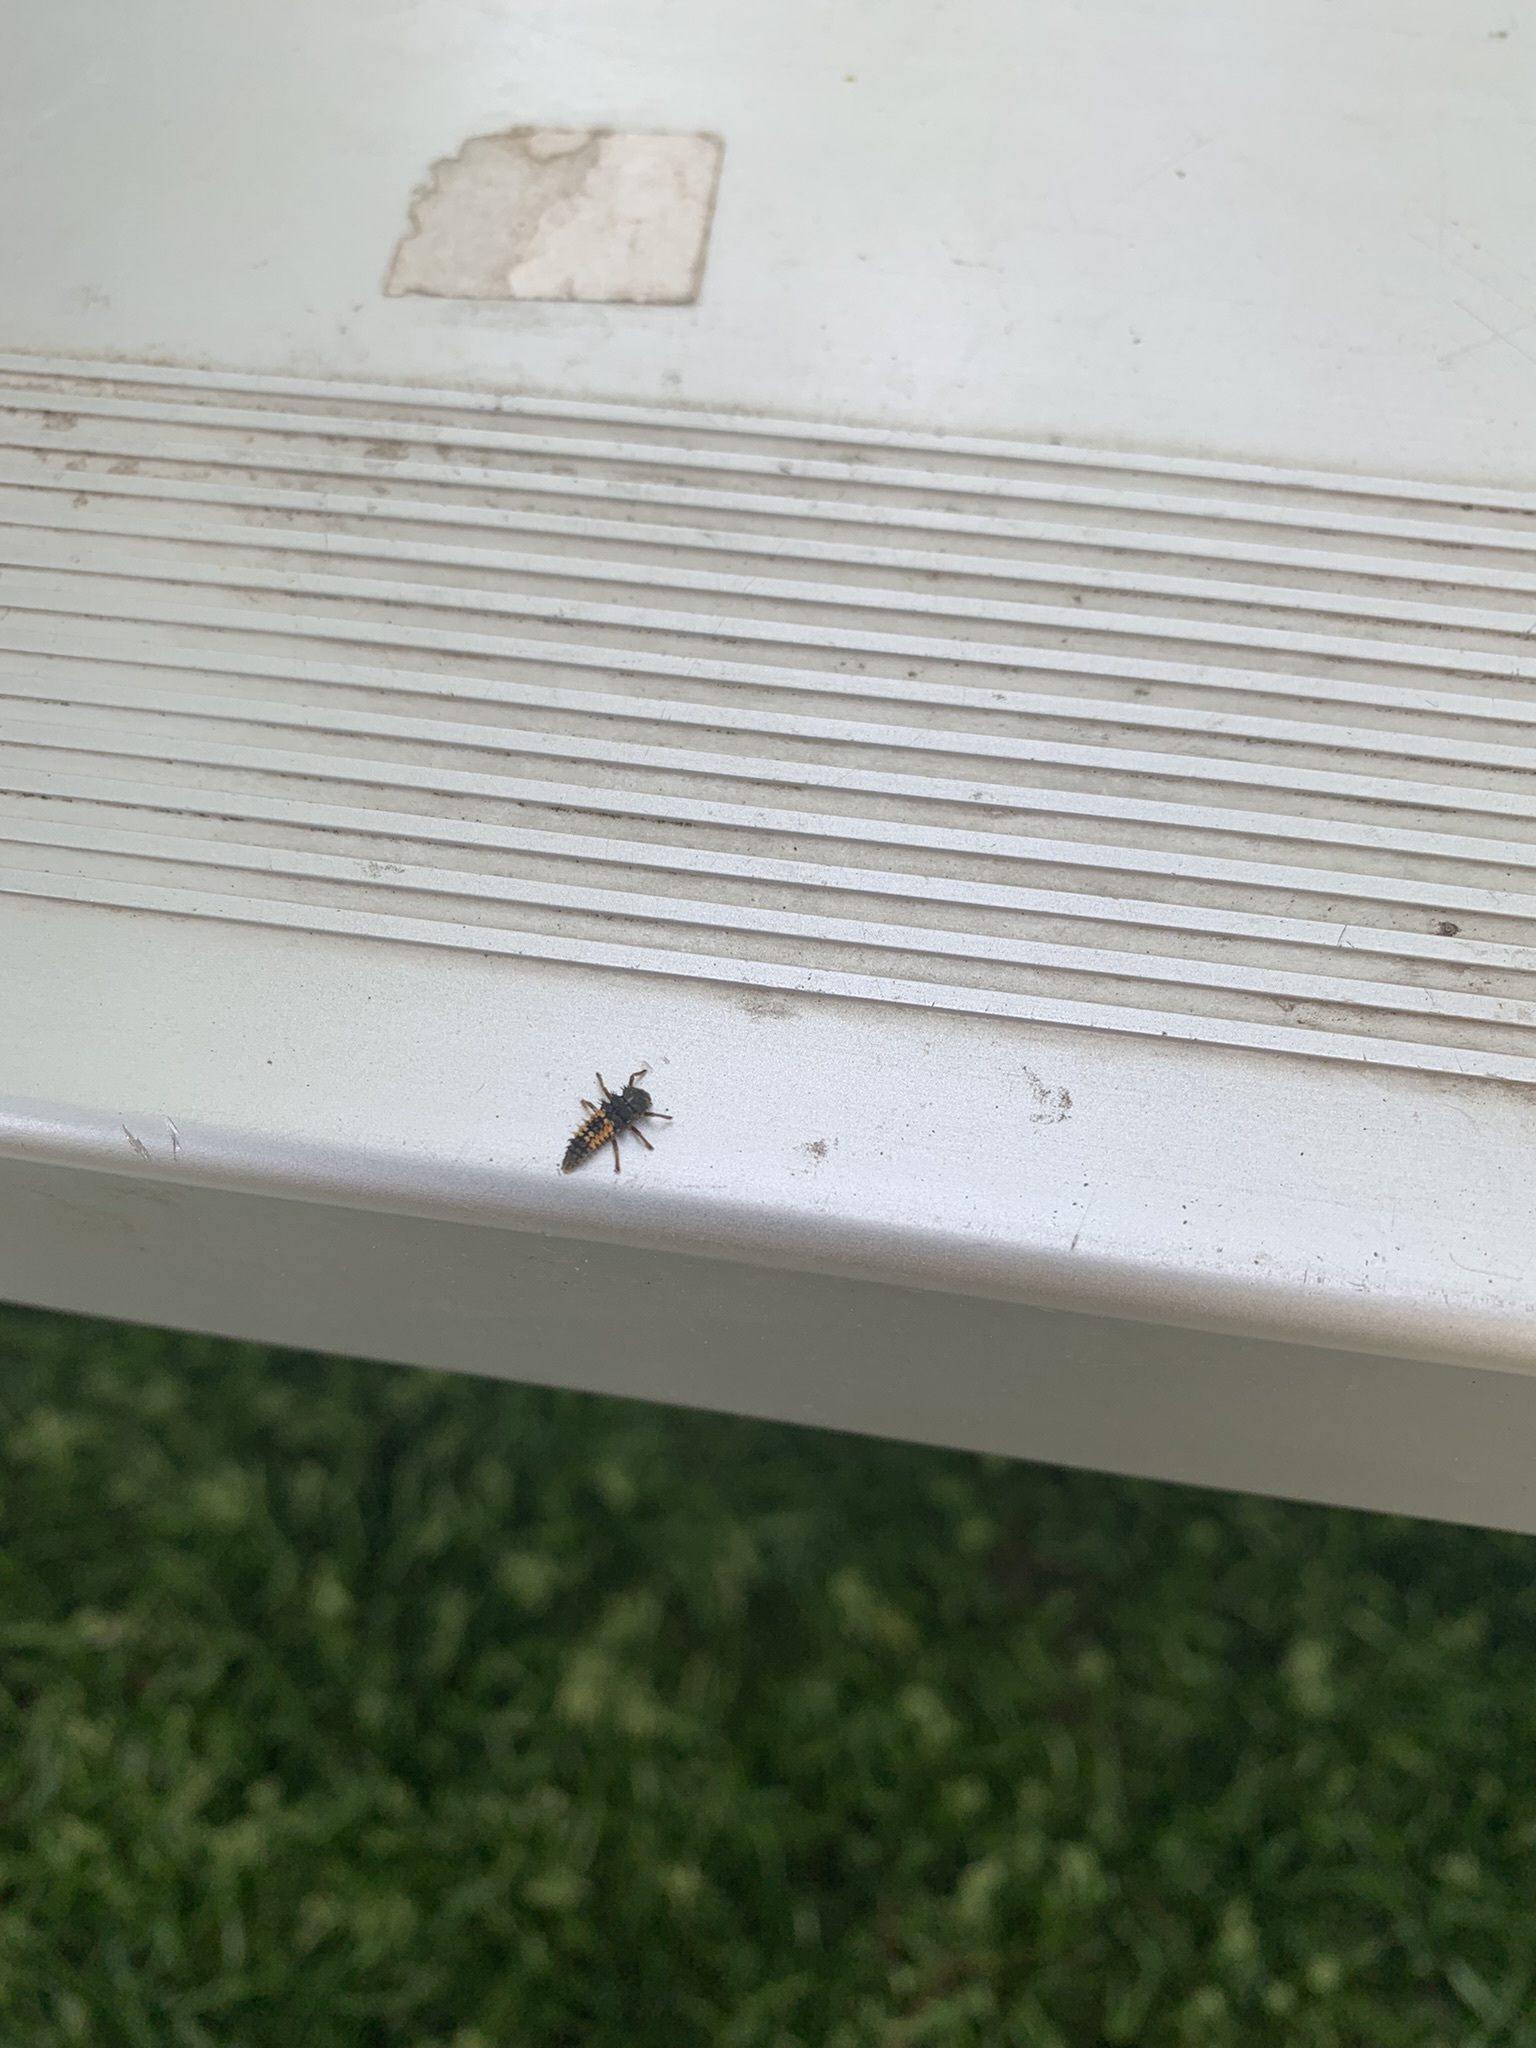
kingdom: Animalia
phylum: Arthropoda
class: Insecta
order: Coleoptera
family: Coccinellidae
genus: Harmonia
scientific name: Harmonia axyridis
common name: Harlequin ladybird
